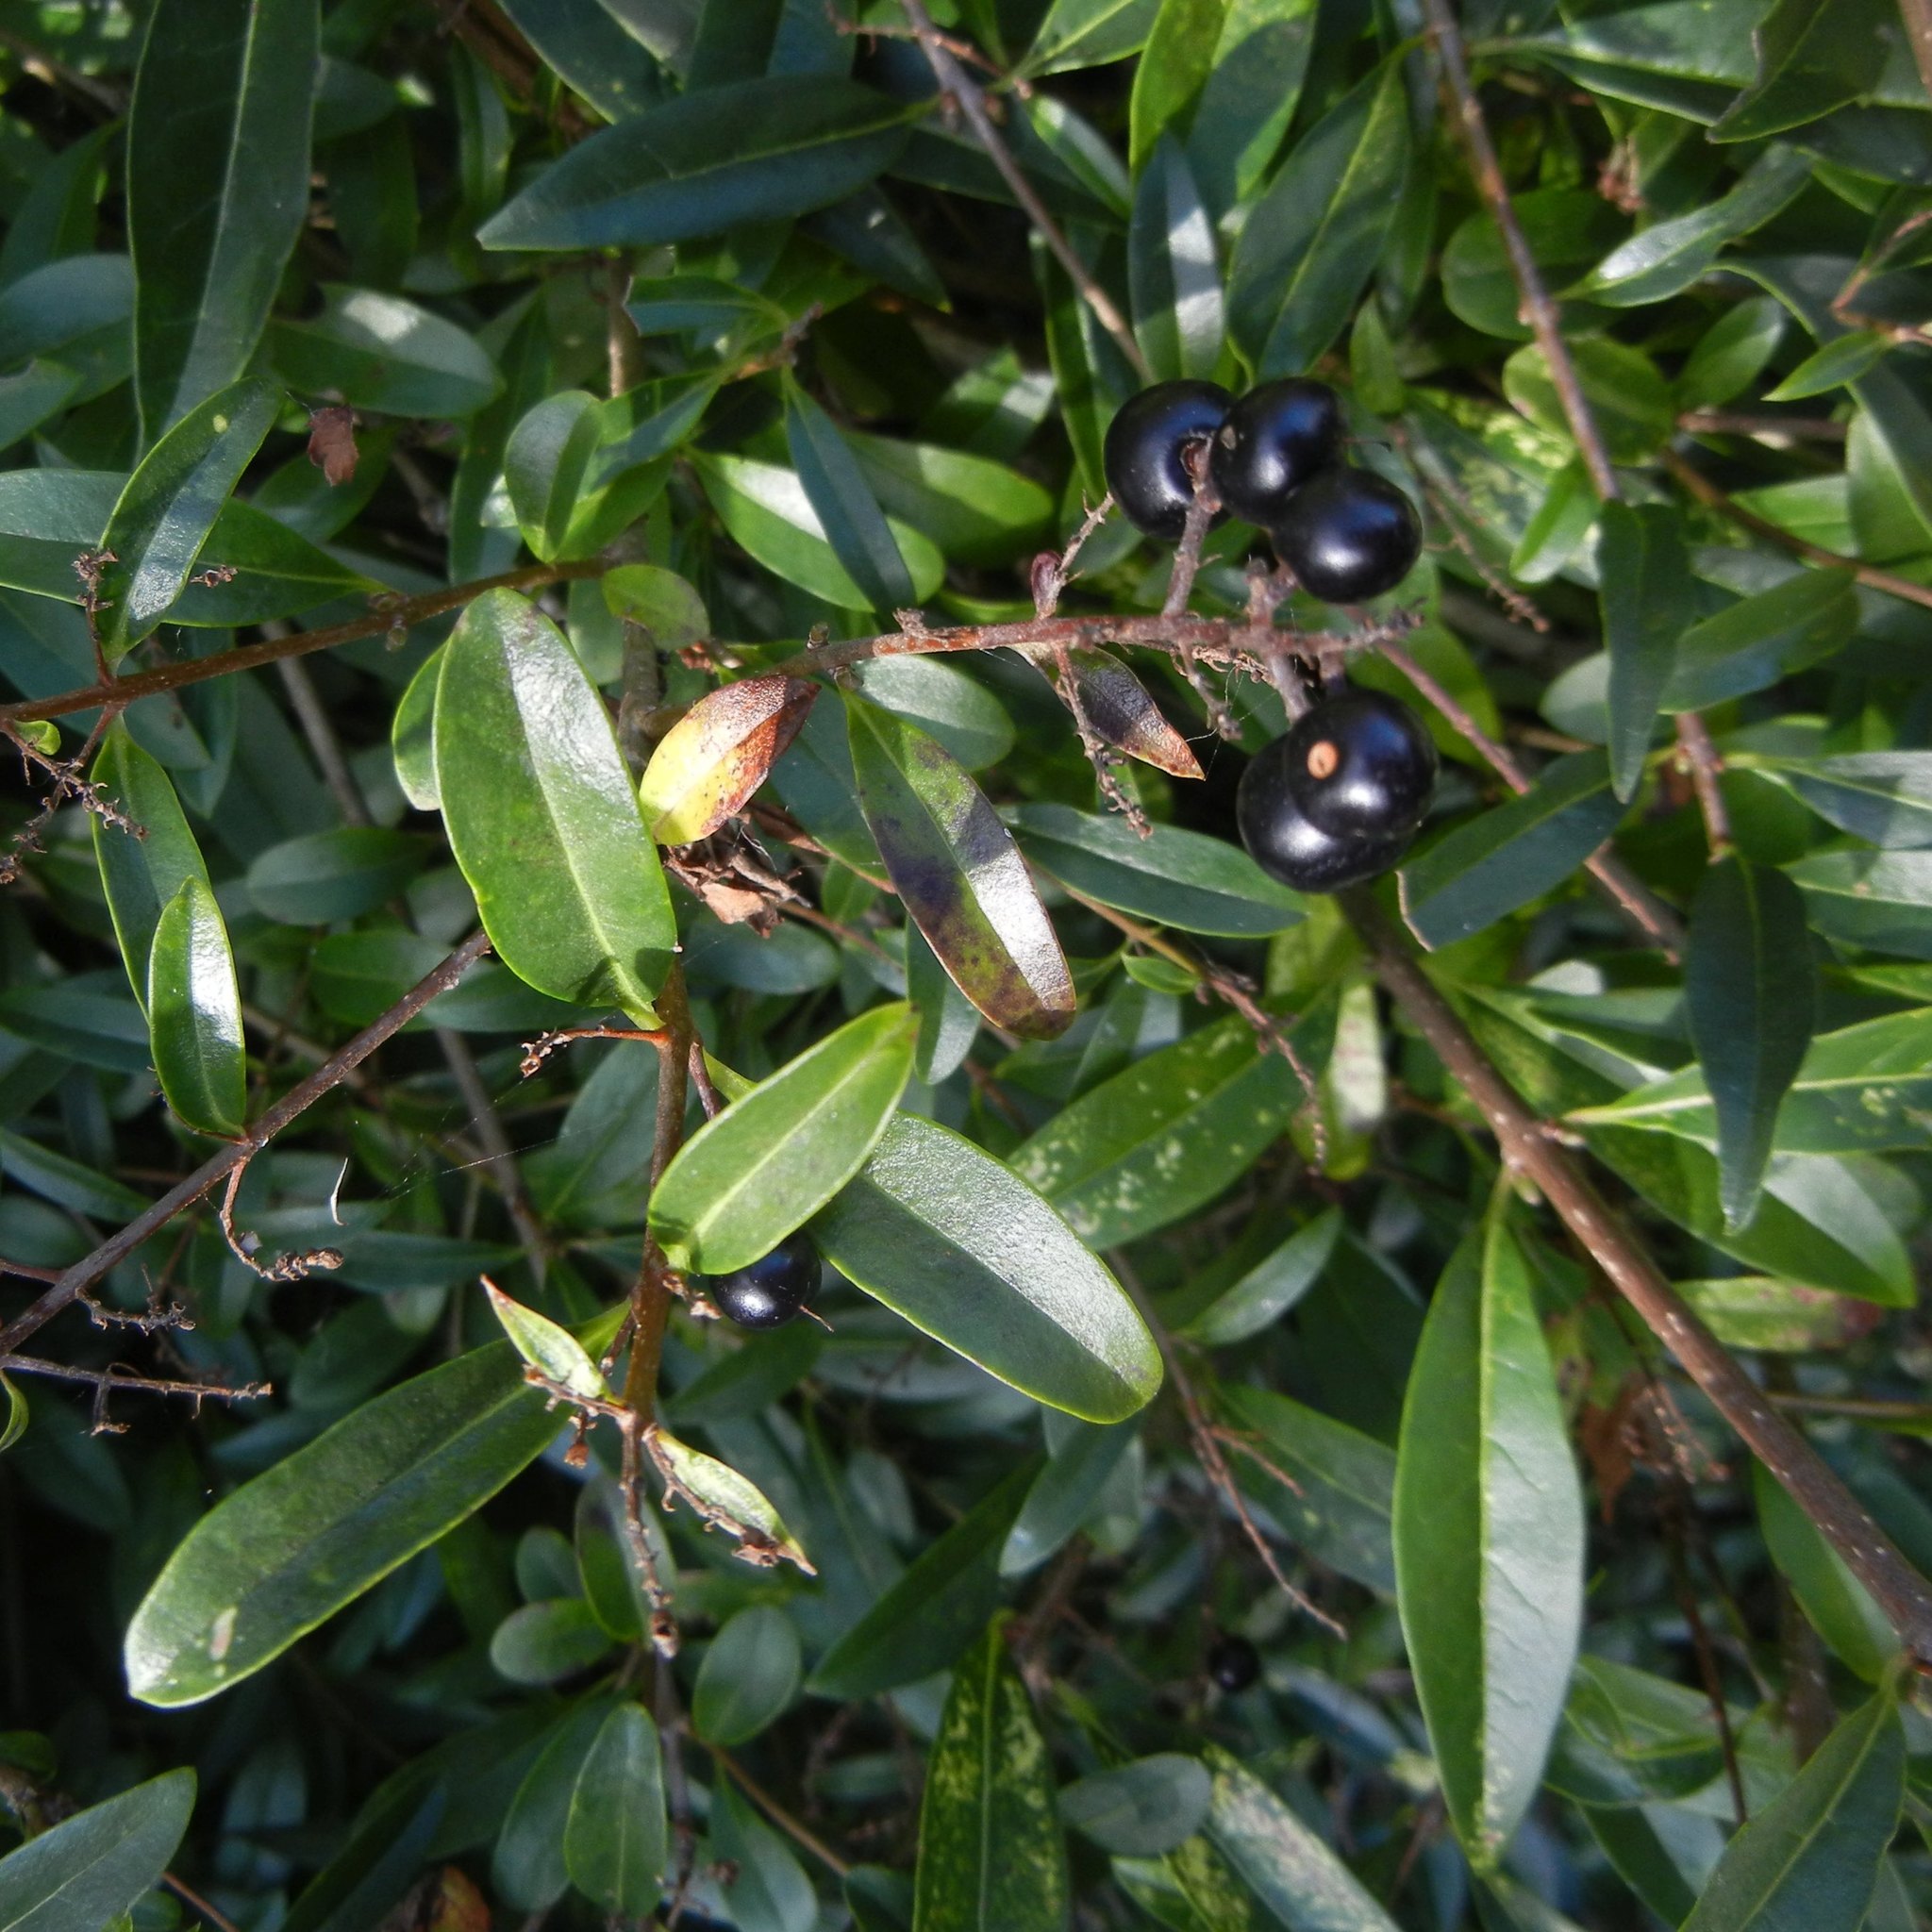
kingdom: Plantae
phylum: Tracheophyta
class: Magnoliopsida
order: Lamiales
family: Oleaceae
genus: Ligustrum
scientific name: Ligustrum vulgare
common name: Wild privet
